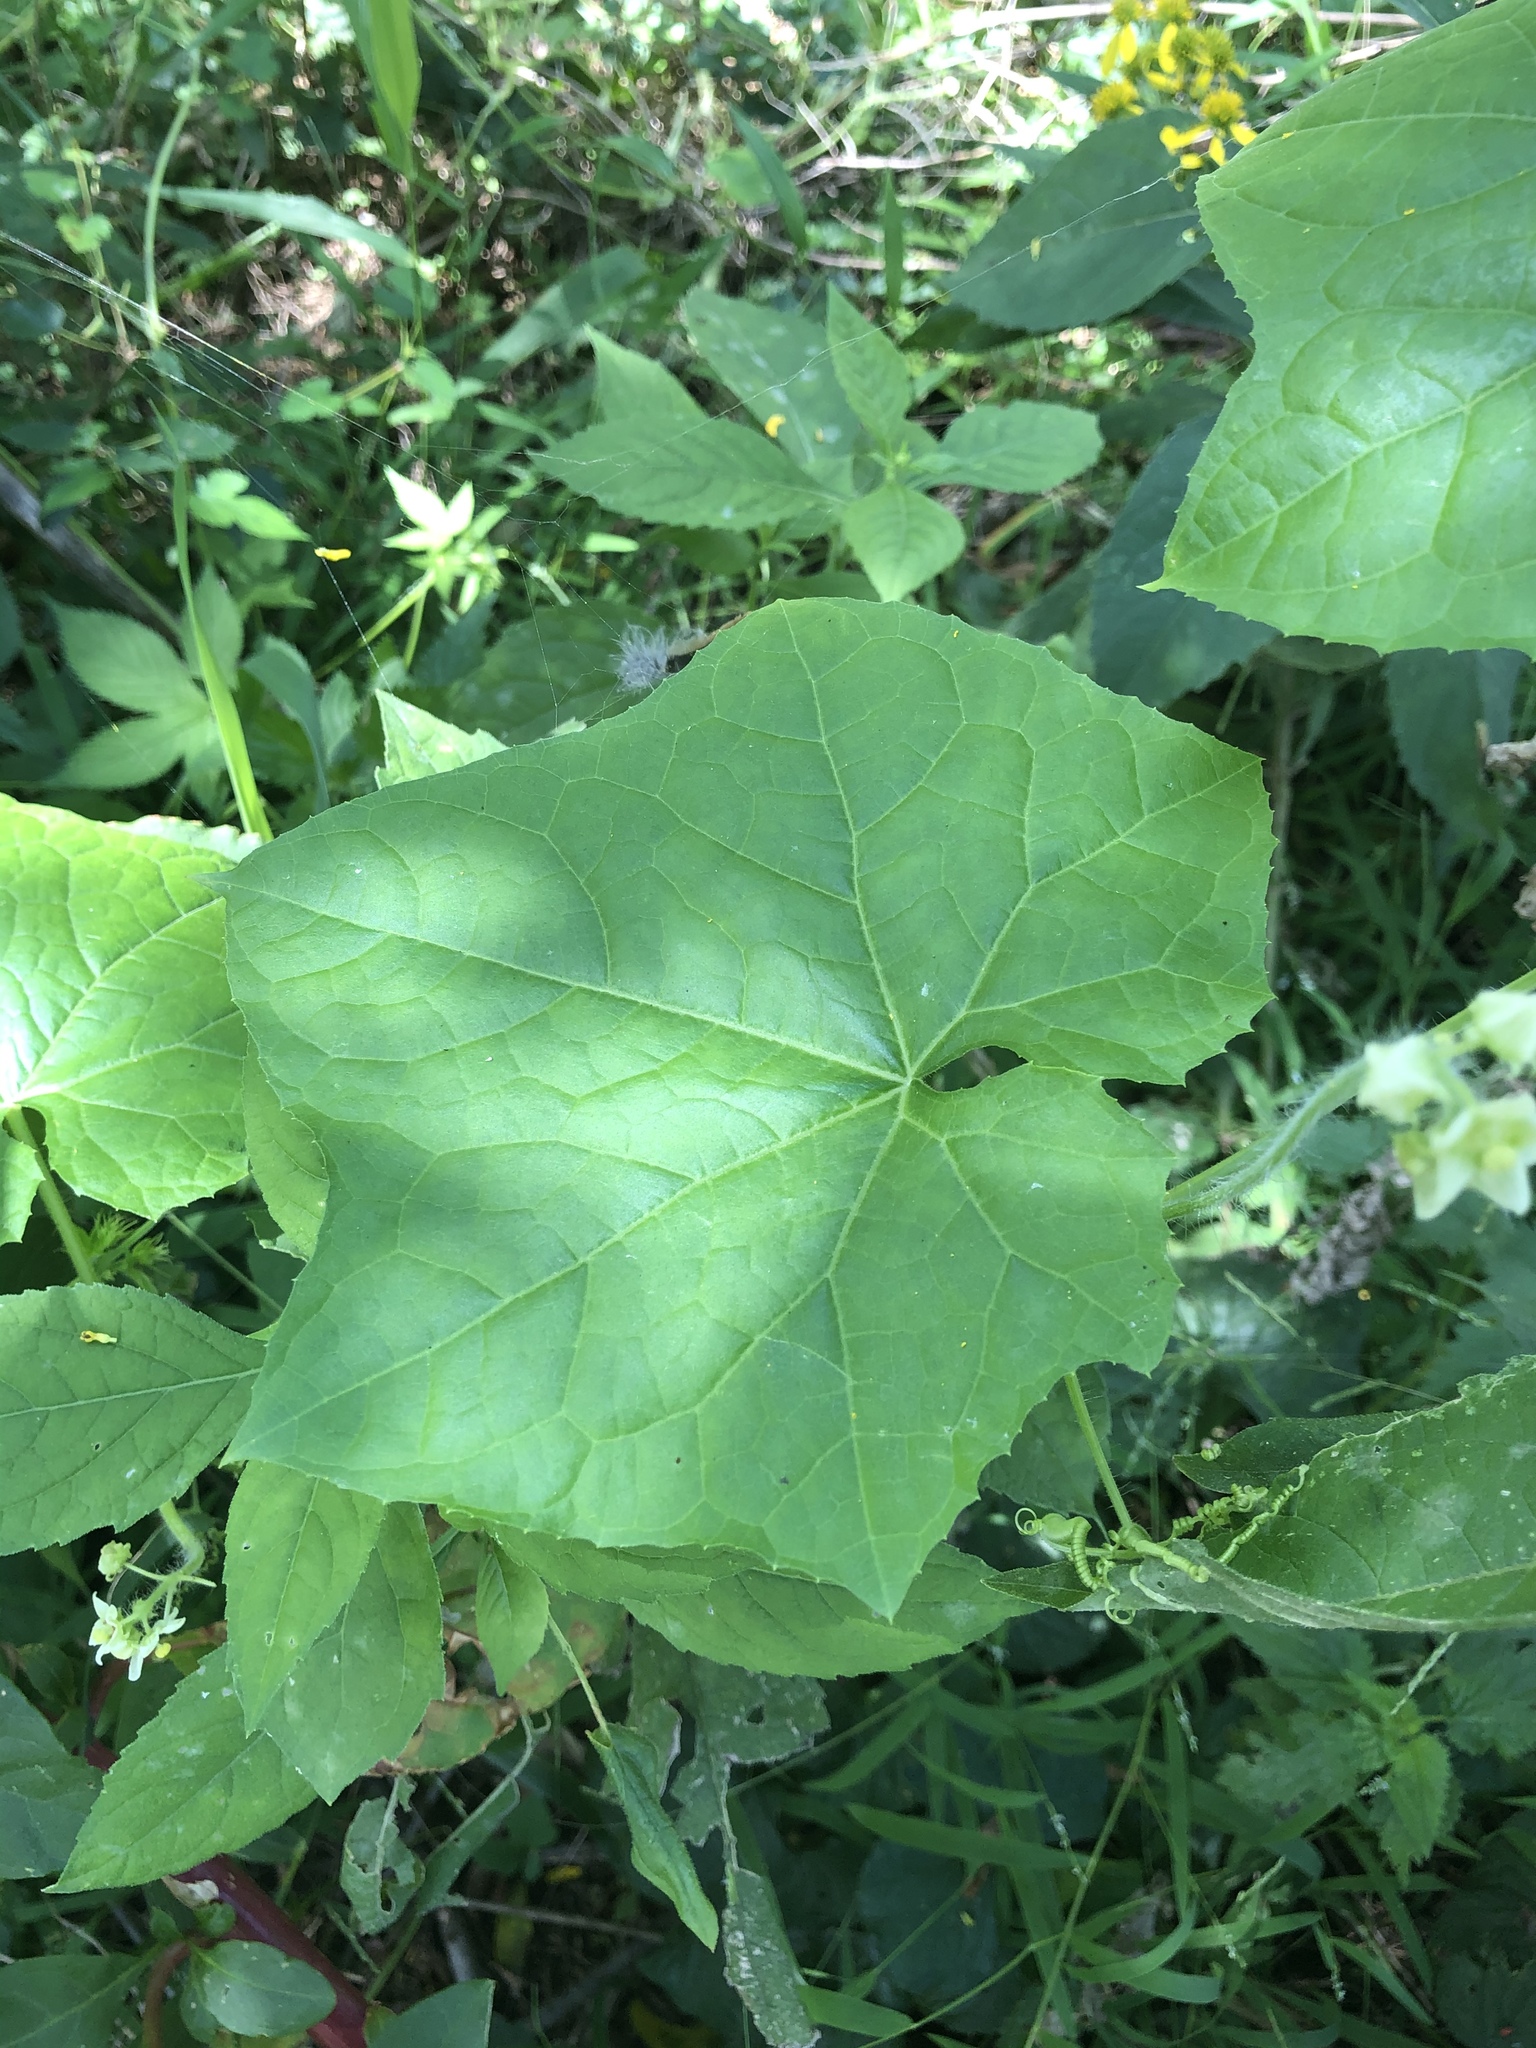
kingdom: Plantae
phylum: Tracheophyta
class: Magnoliopsida
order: Cucurbitales
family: Cucurbitaceae
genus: Sicyos
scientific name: Sicyos angulatus
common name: Angled burr cucumber
